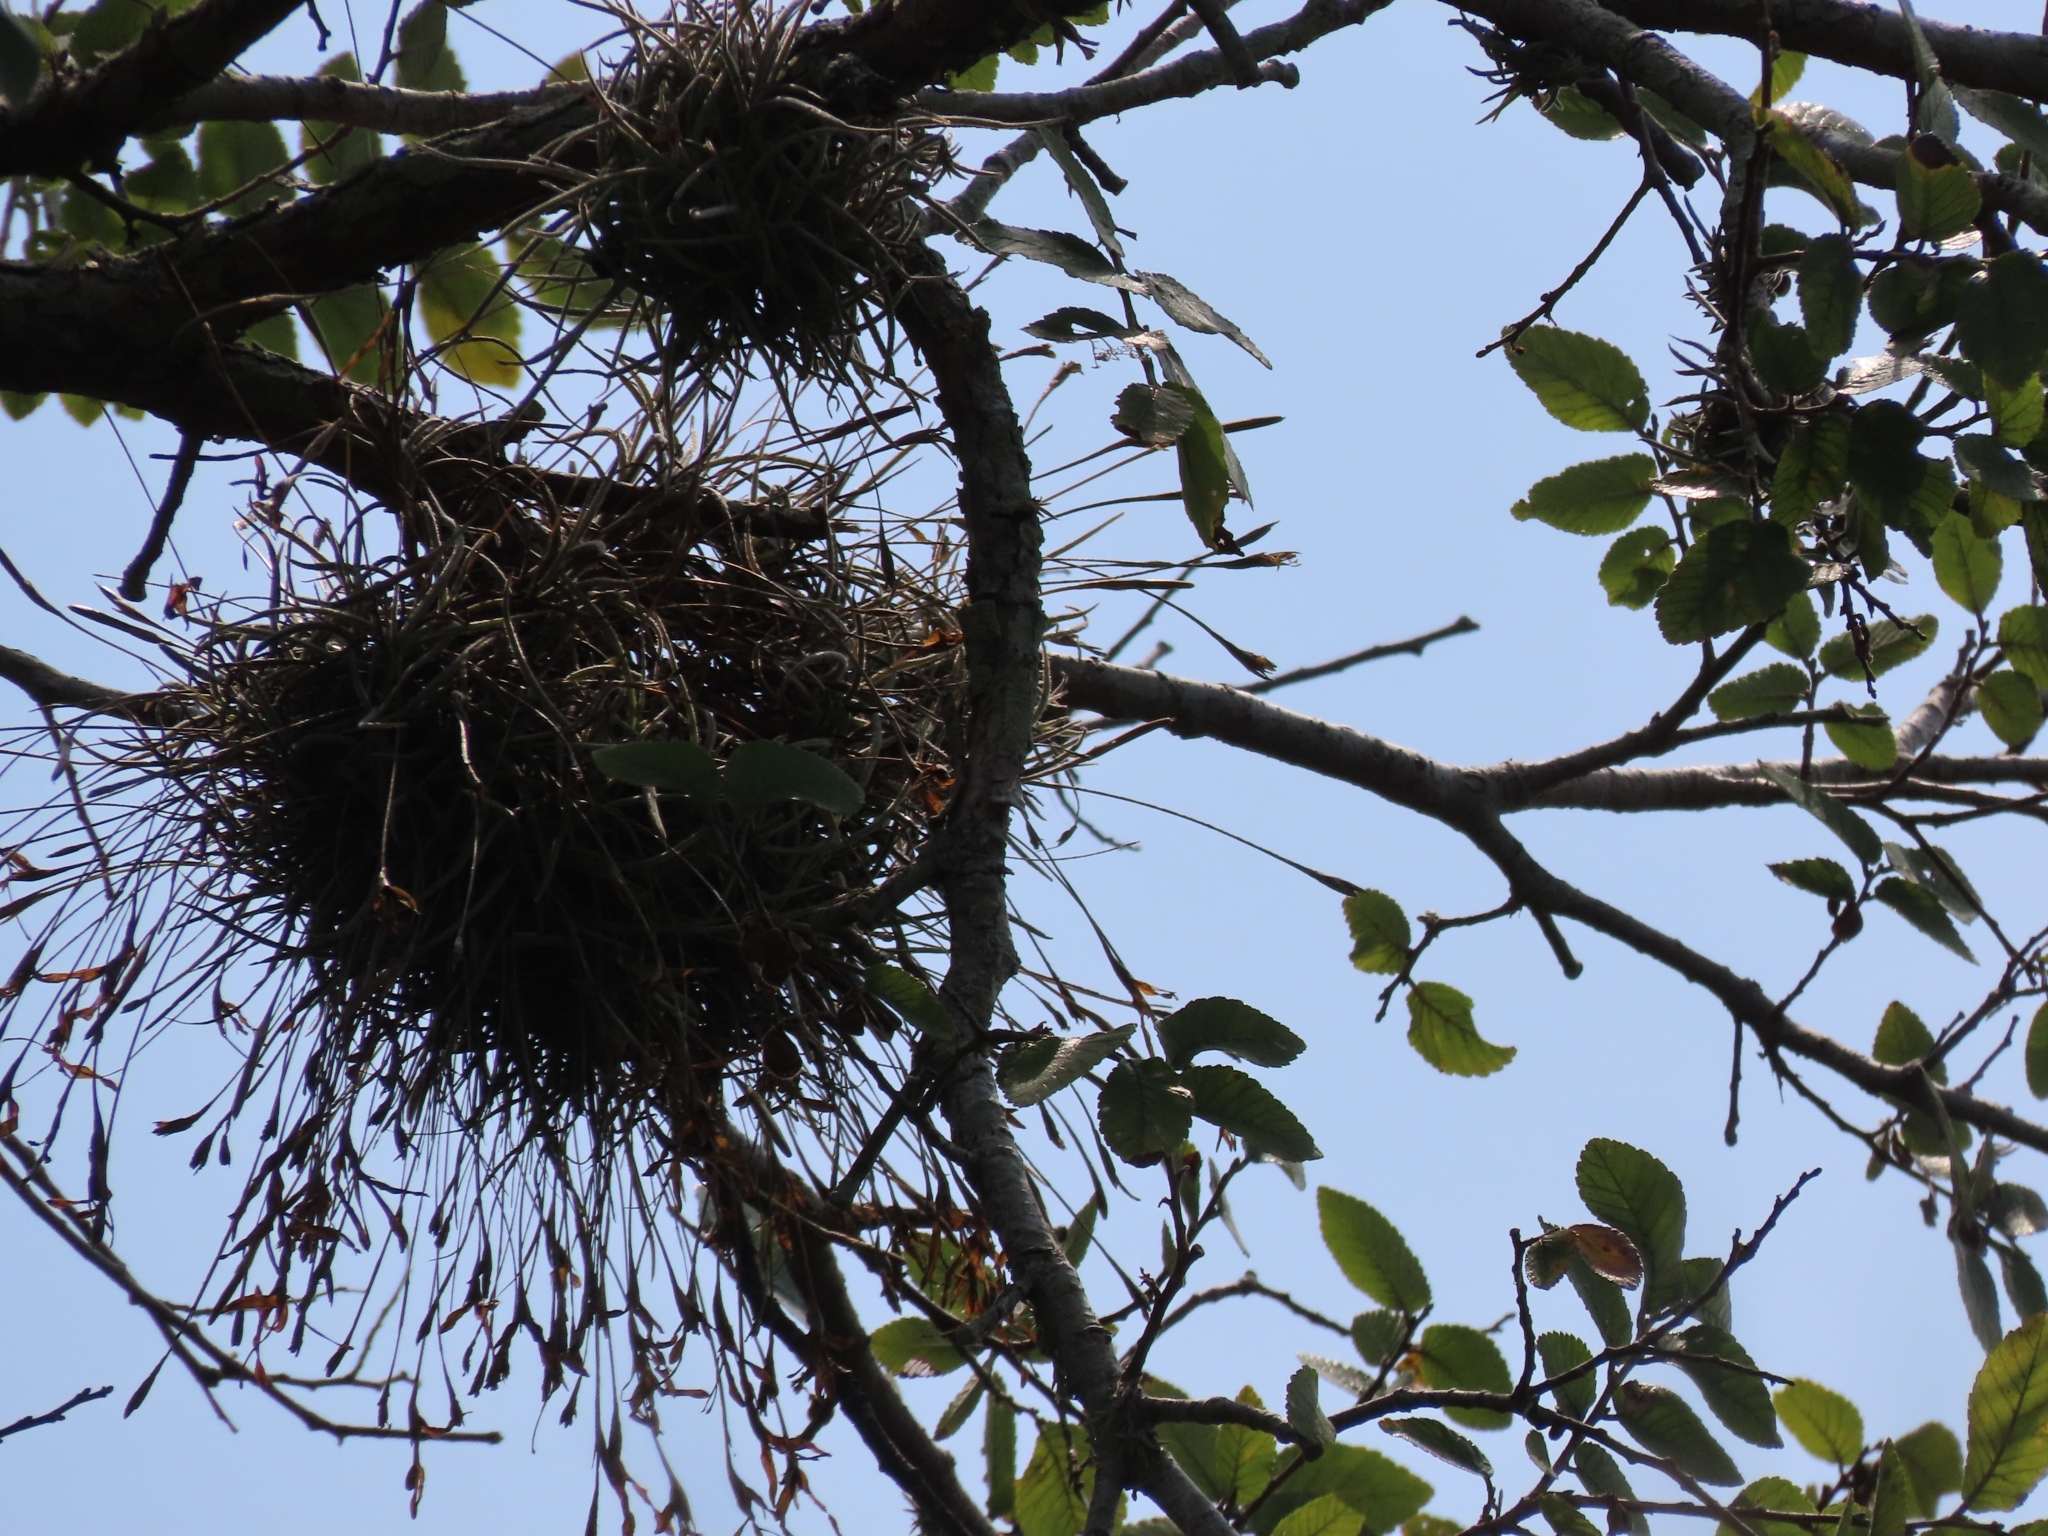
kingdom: Plantae
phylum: Tracheophyta
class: Liliopsida
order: Poales
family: Bromeliaceae
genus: Tillandsia
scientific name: Tillandsia recurvata
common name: Small ballmoss
